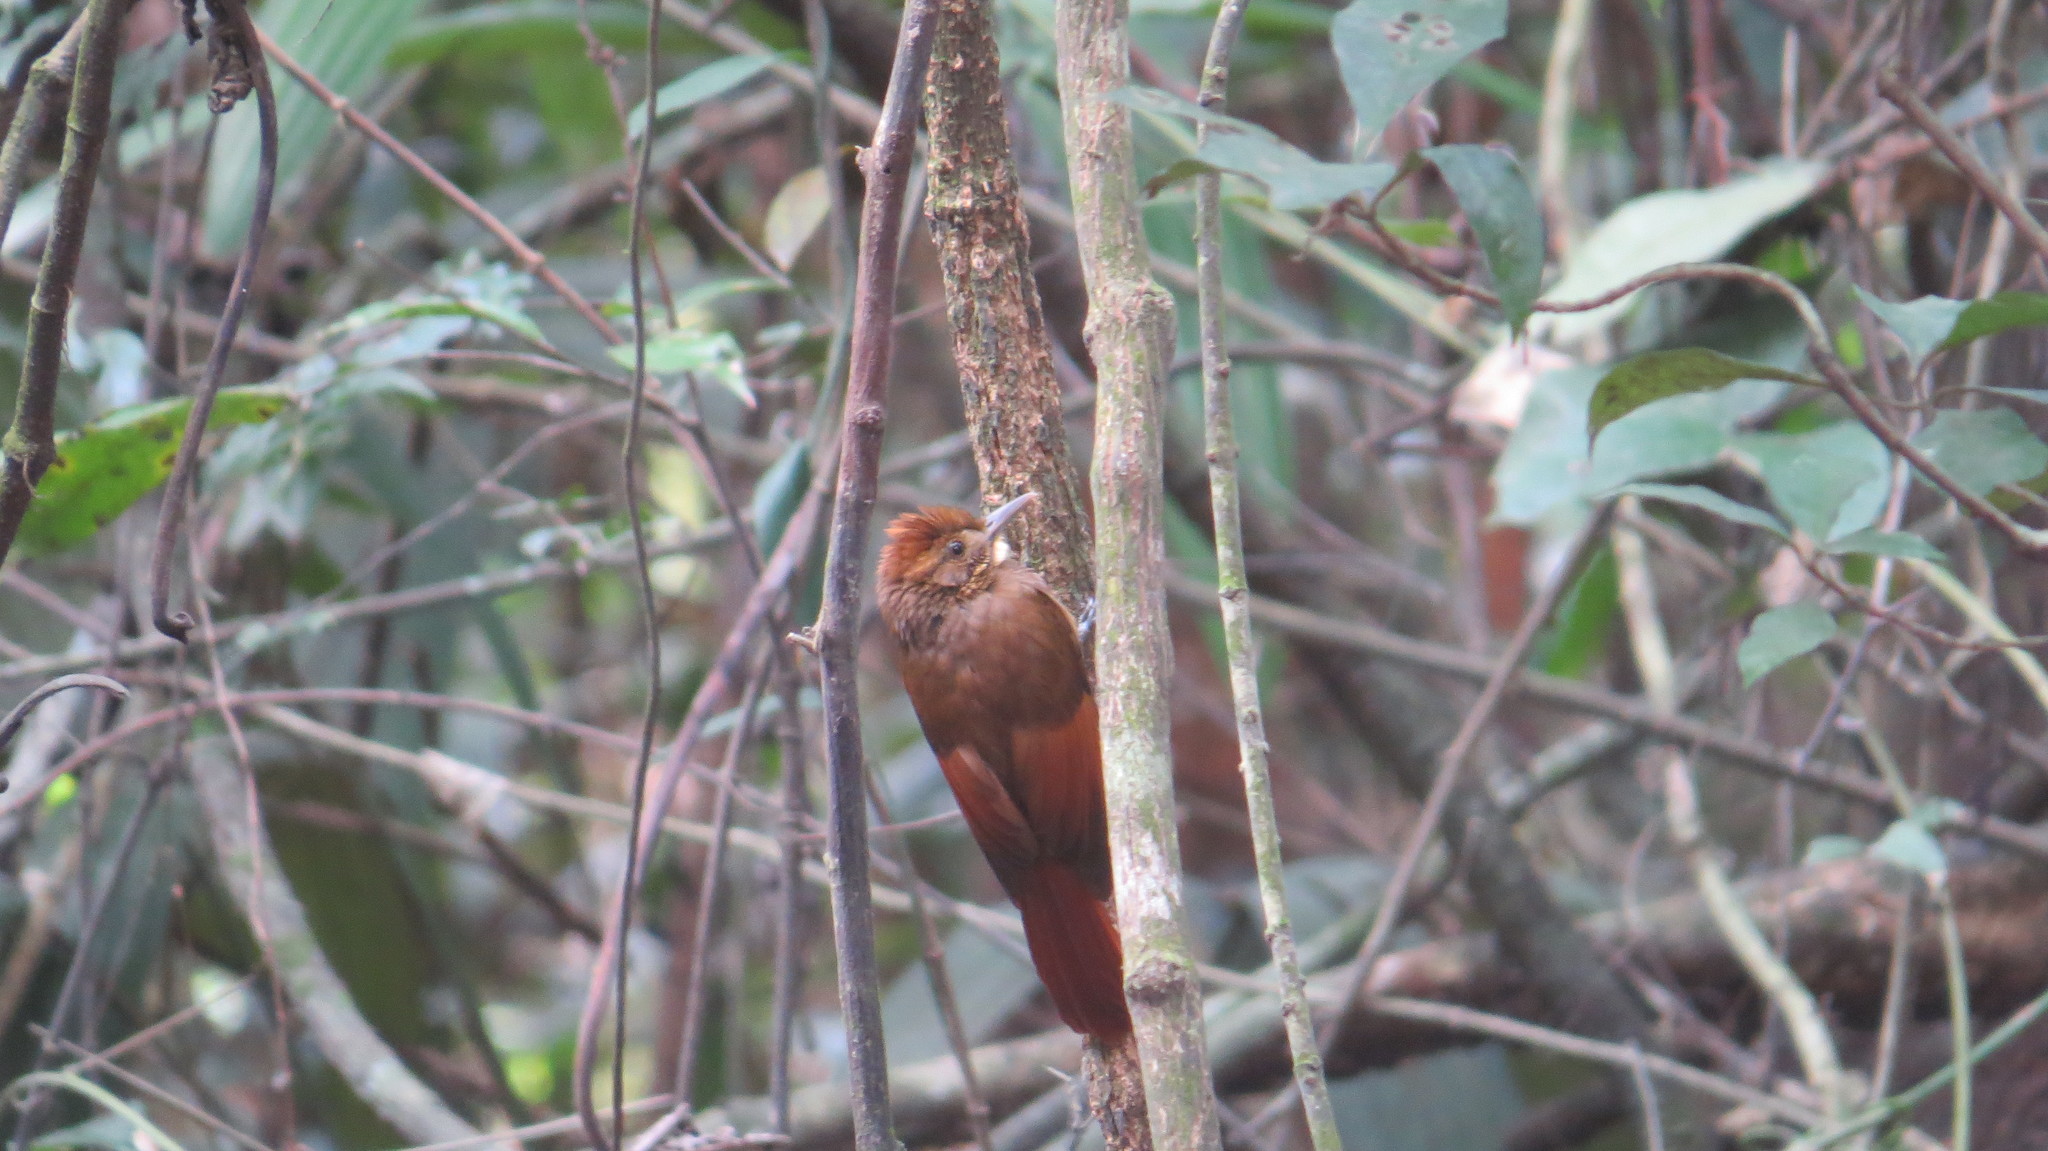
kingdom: Animalia
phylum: Chordata
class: Aves
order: Passeriformes
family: Furnariidae
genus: Dendrocincla
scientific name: Dendrocincla anabatina
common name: Tawny-winged woodcreeper
